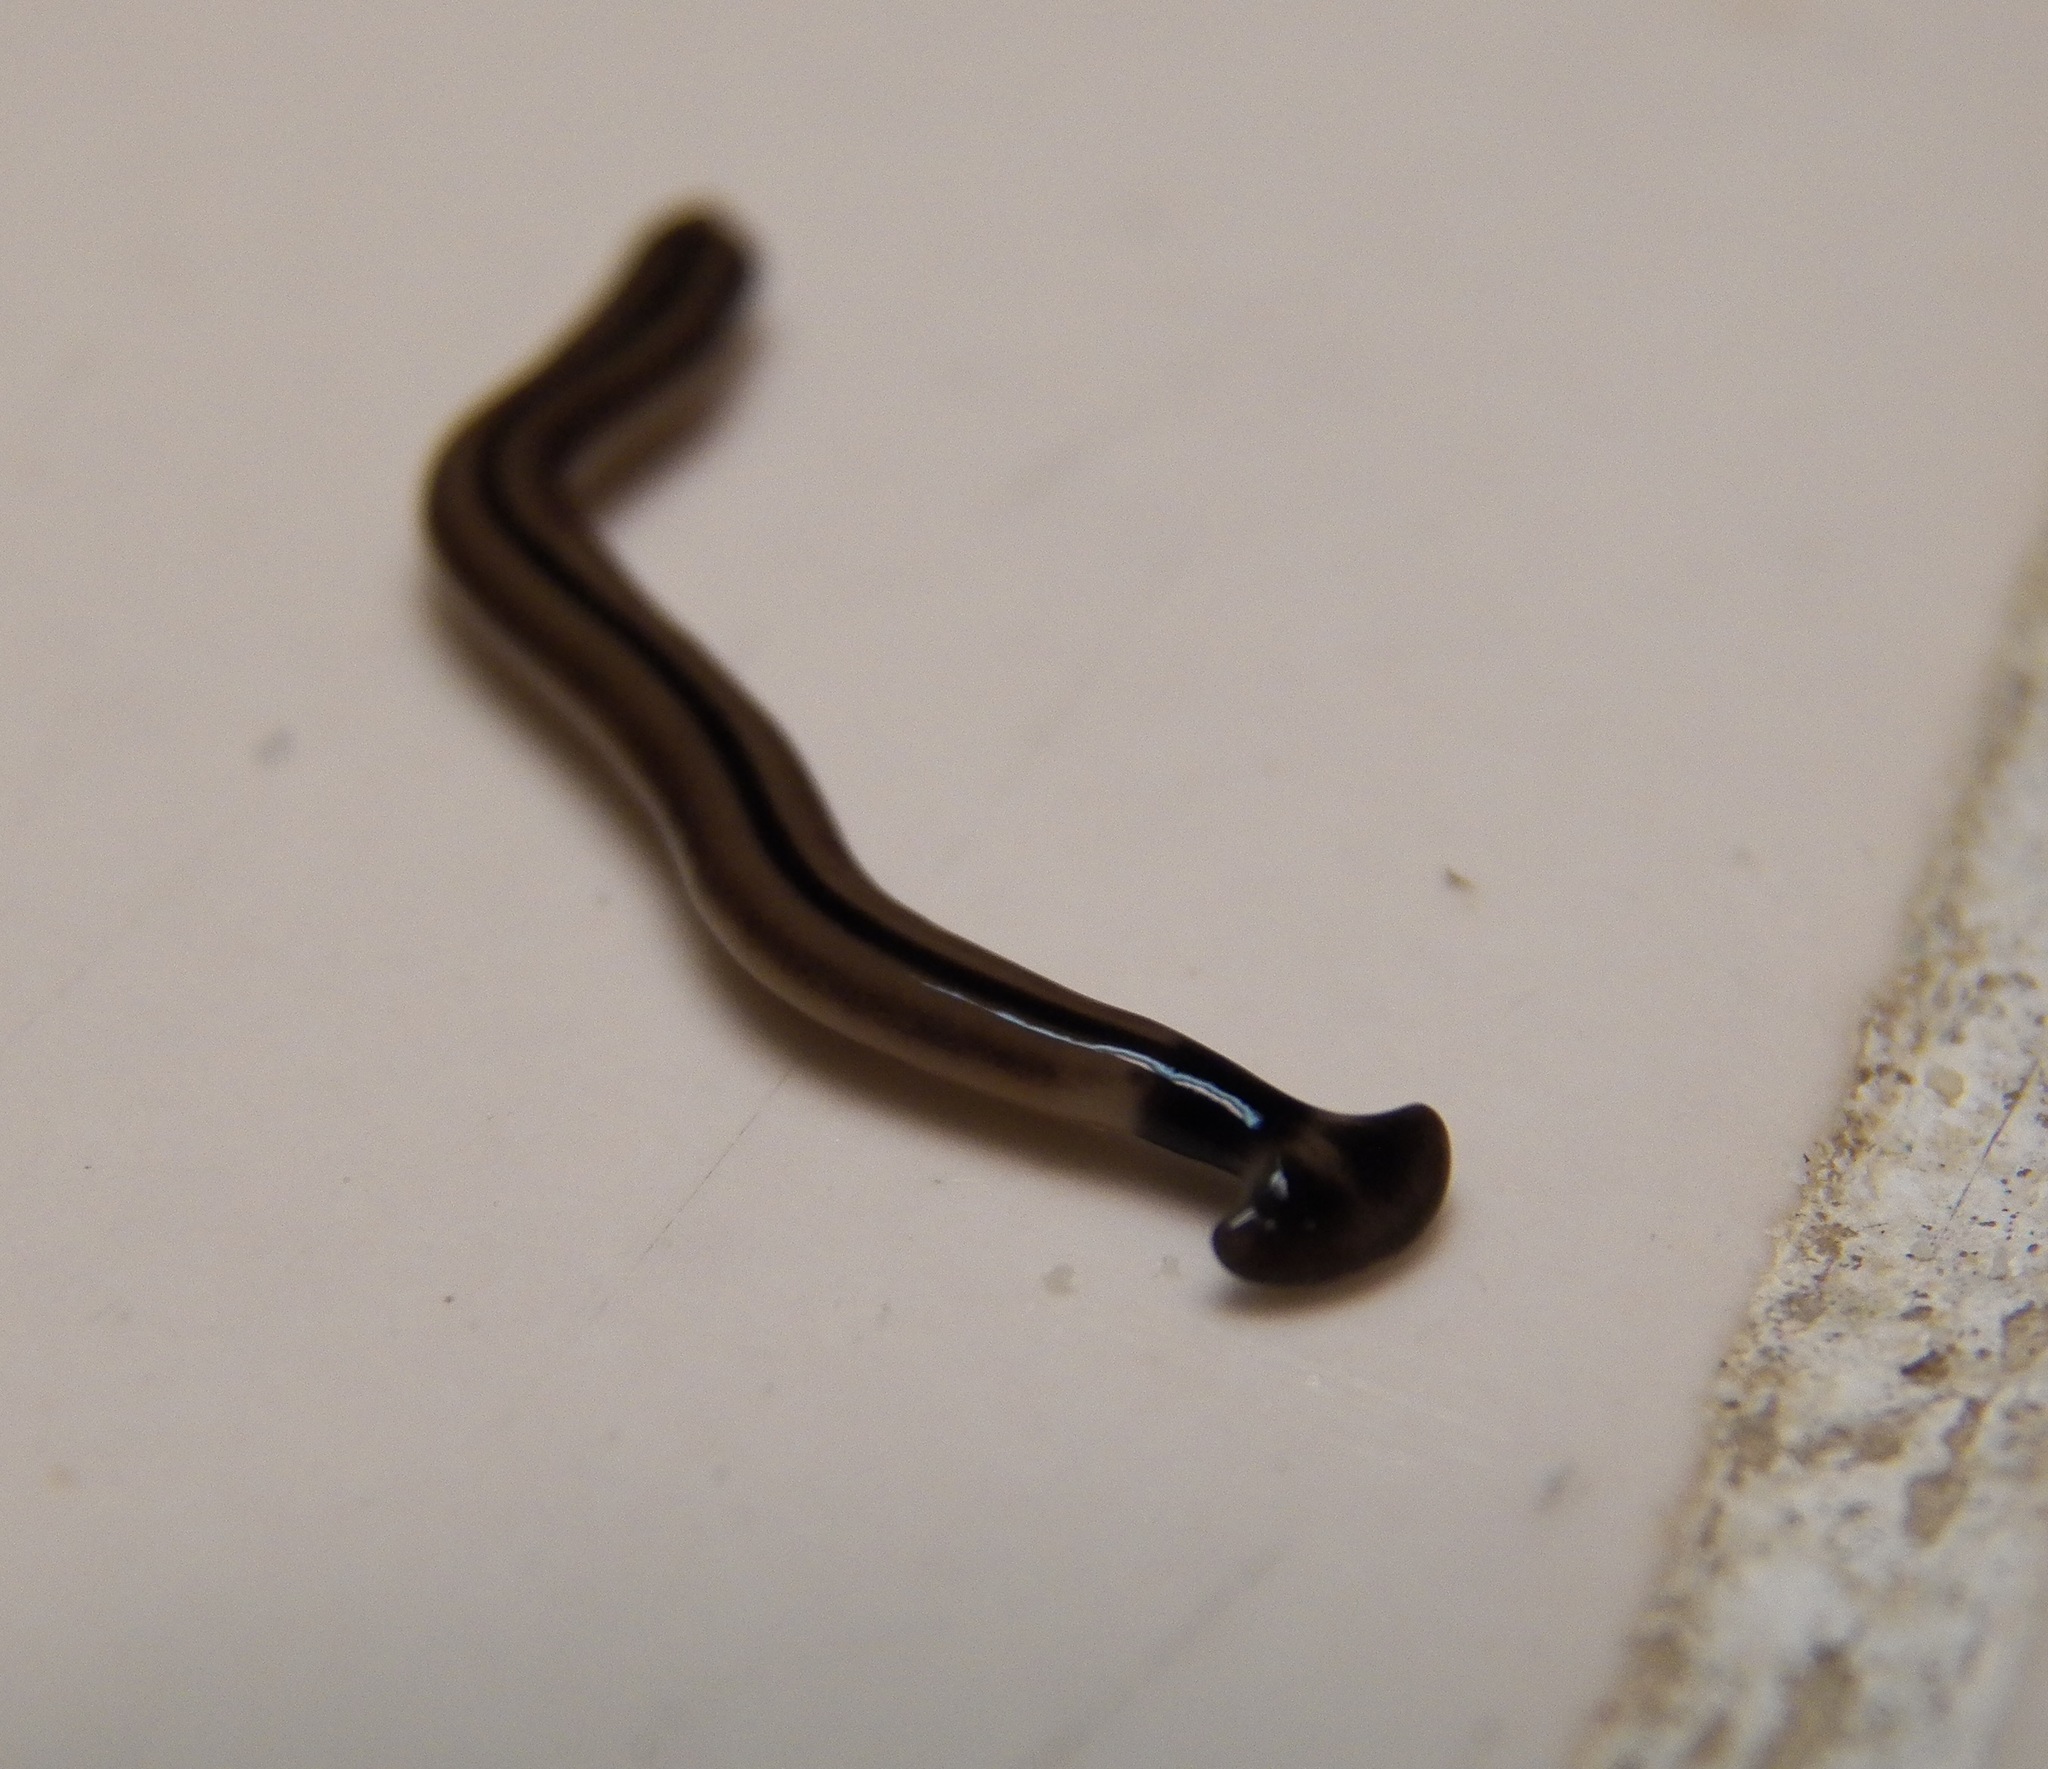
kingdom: Animalia
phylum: Platyhelminthes
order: Tricladida
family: Geoplanidae
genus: Bipalium
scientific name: Bipalium vagum
